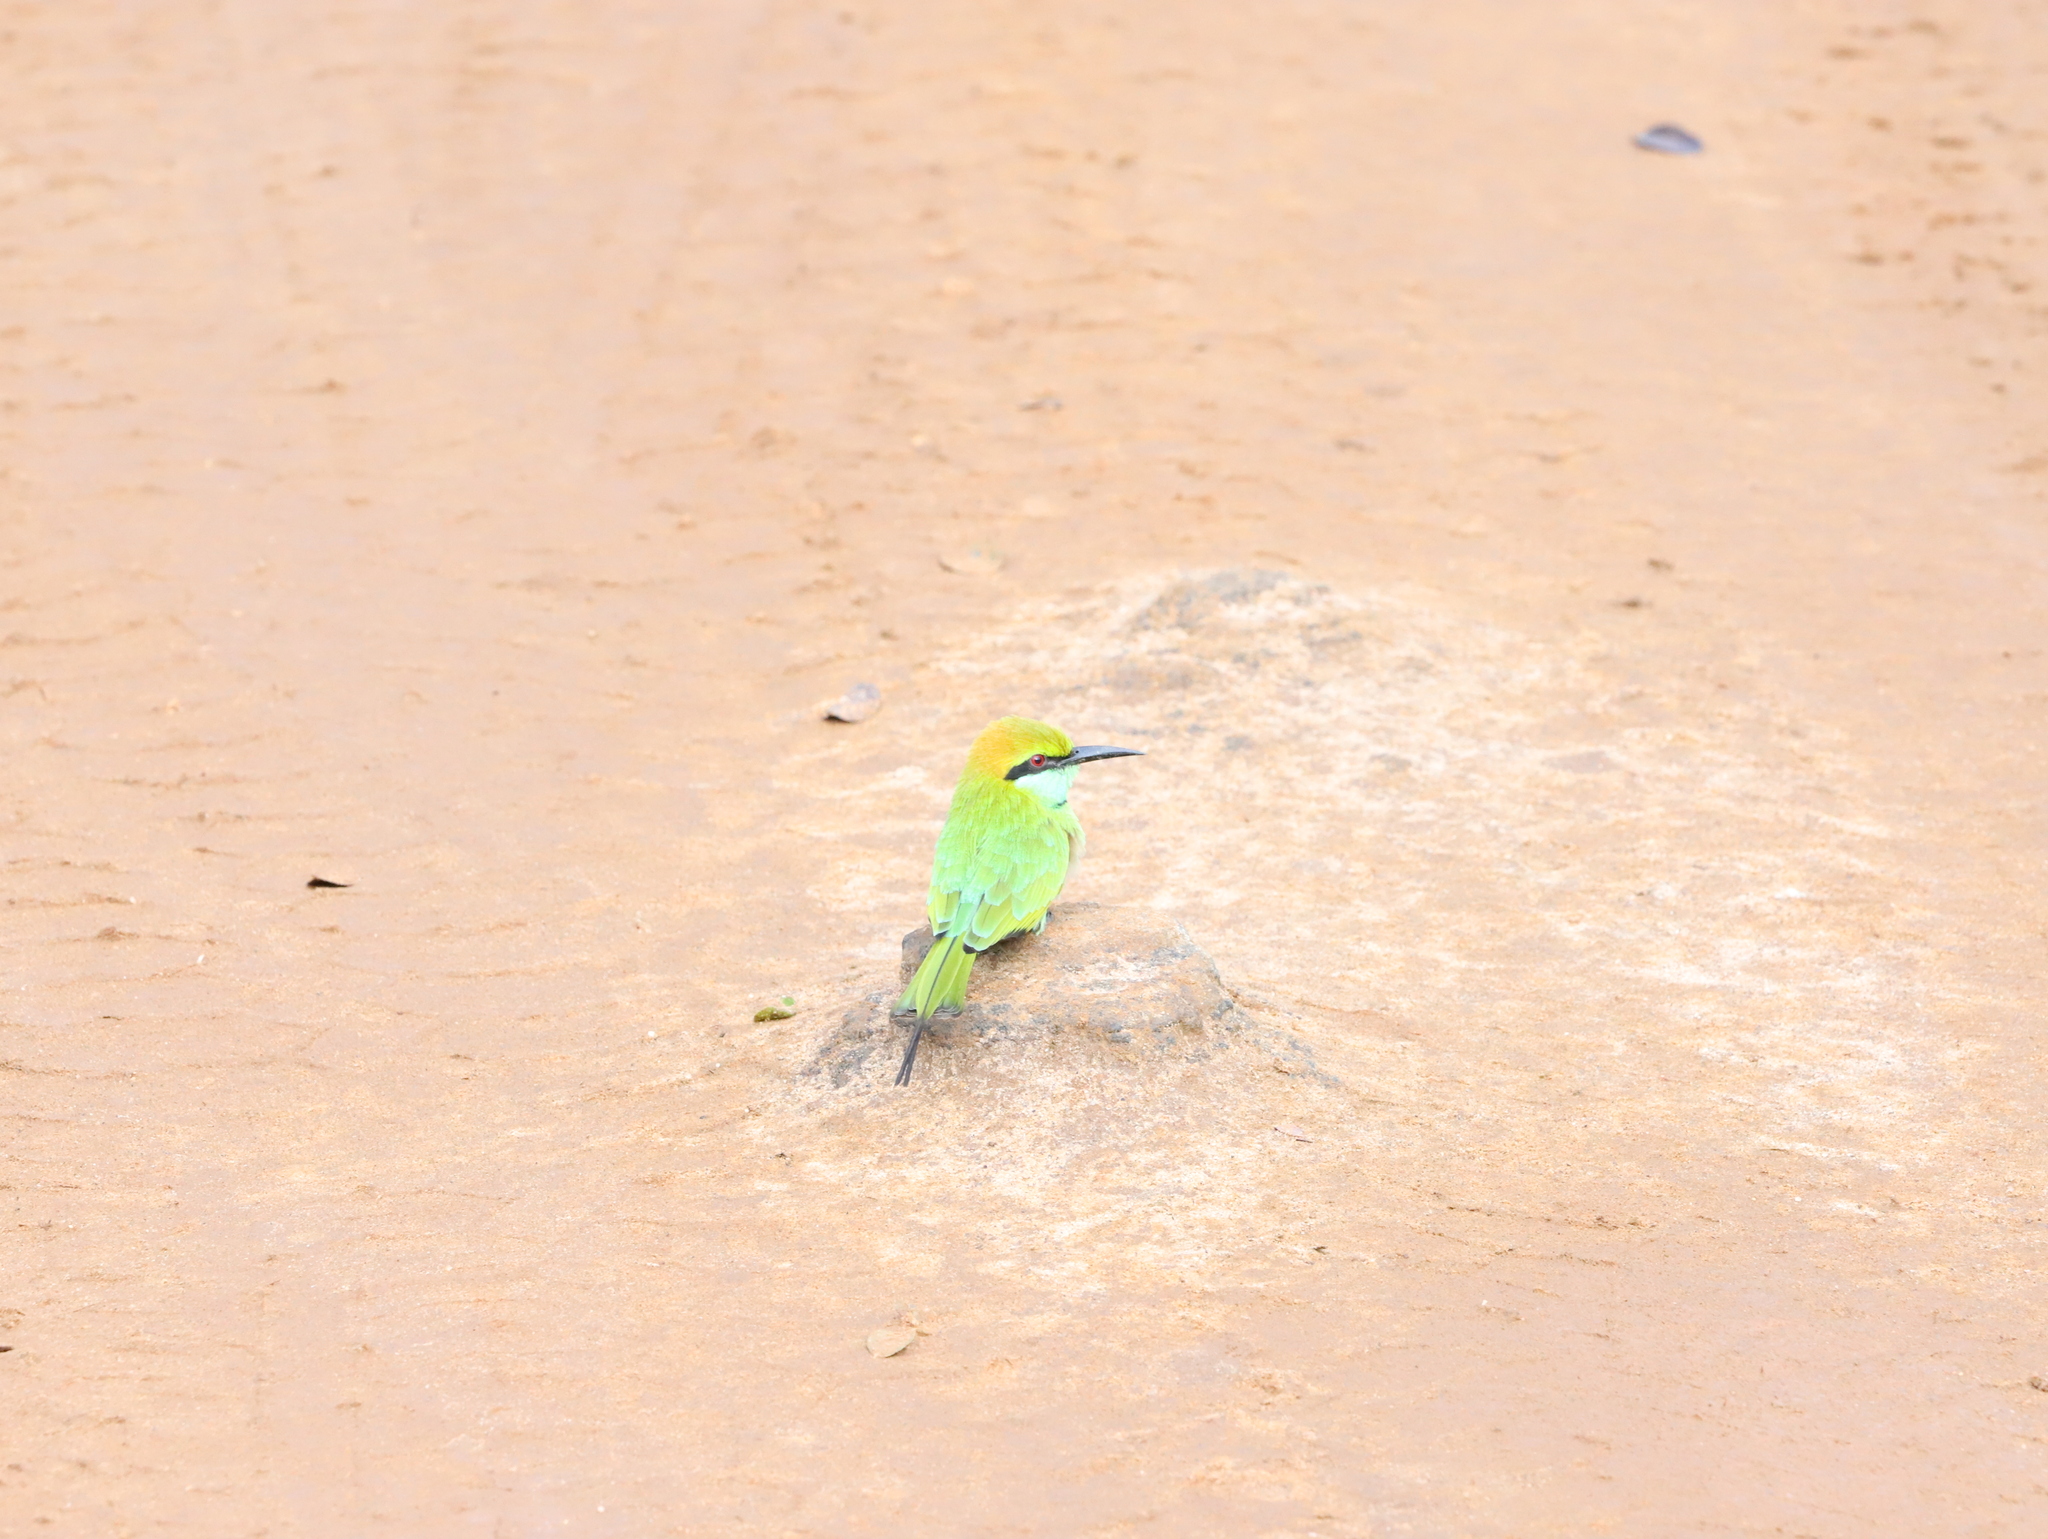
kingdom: Animalia
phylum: Chordata
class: Aves
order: Coraciiformes
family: Meropidae
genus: Merops
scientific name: Merops orientalis
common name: Green bee-eater
